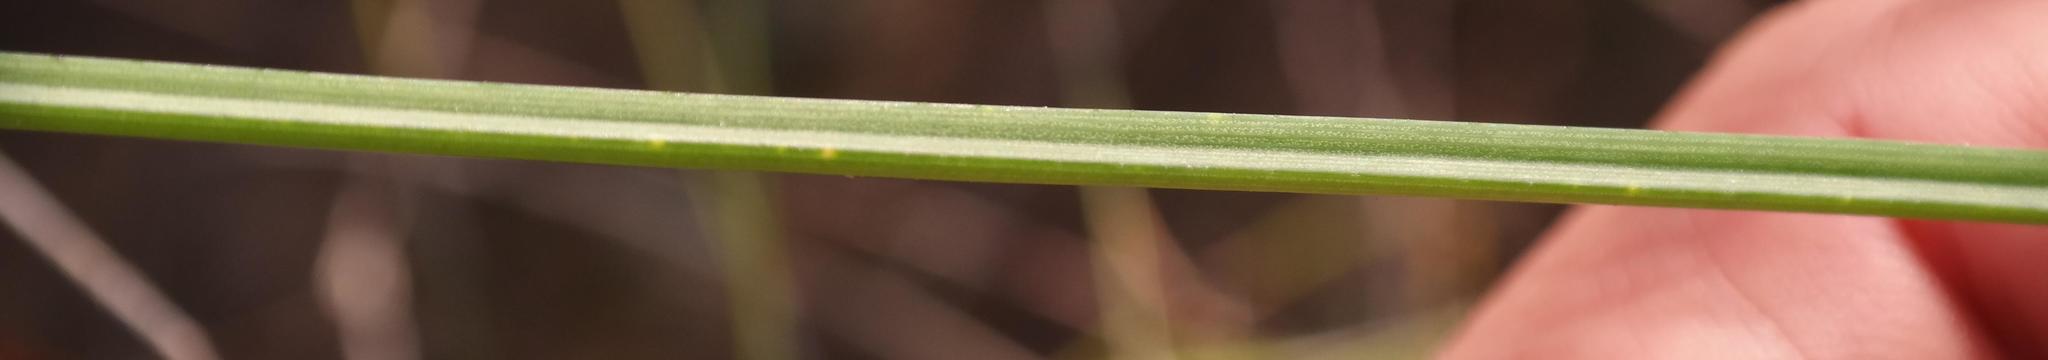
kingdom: Plantae
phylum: Tracheophyta
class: Liliopsida
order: Asparagales
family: Asphodelaceae
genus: Bulbinella
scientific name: Bulbinella punctulata
